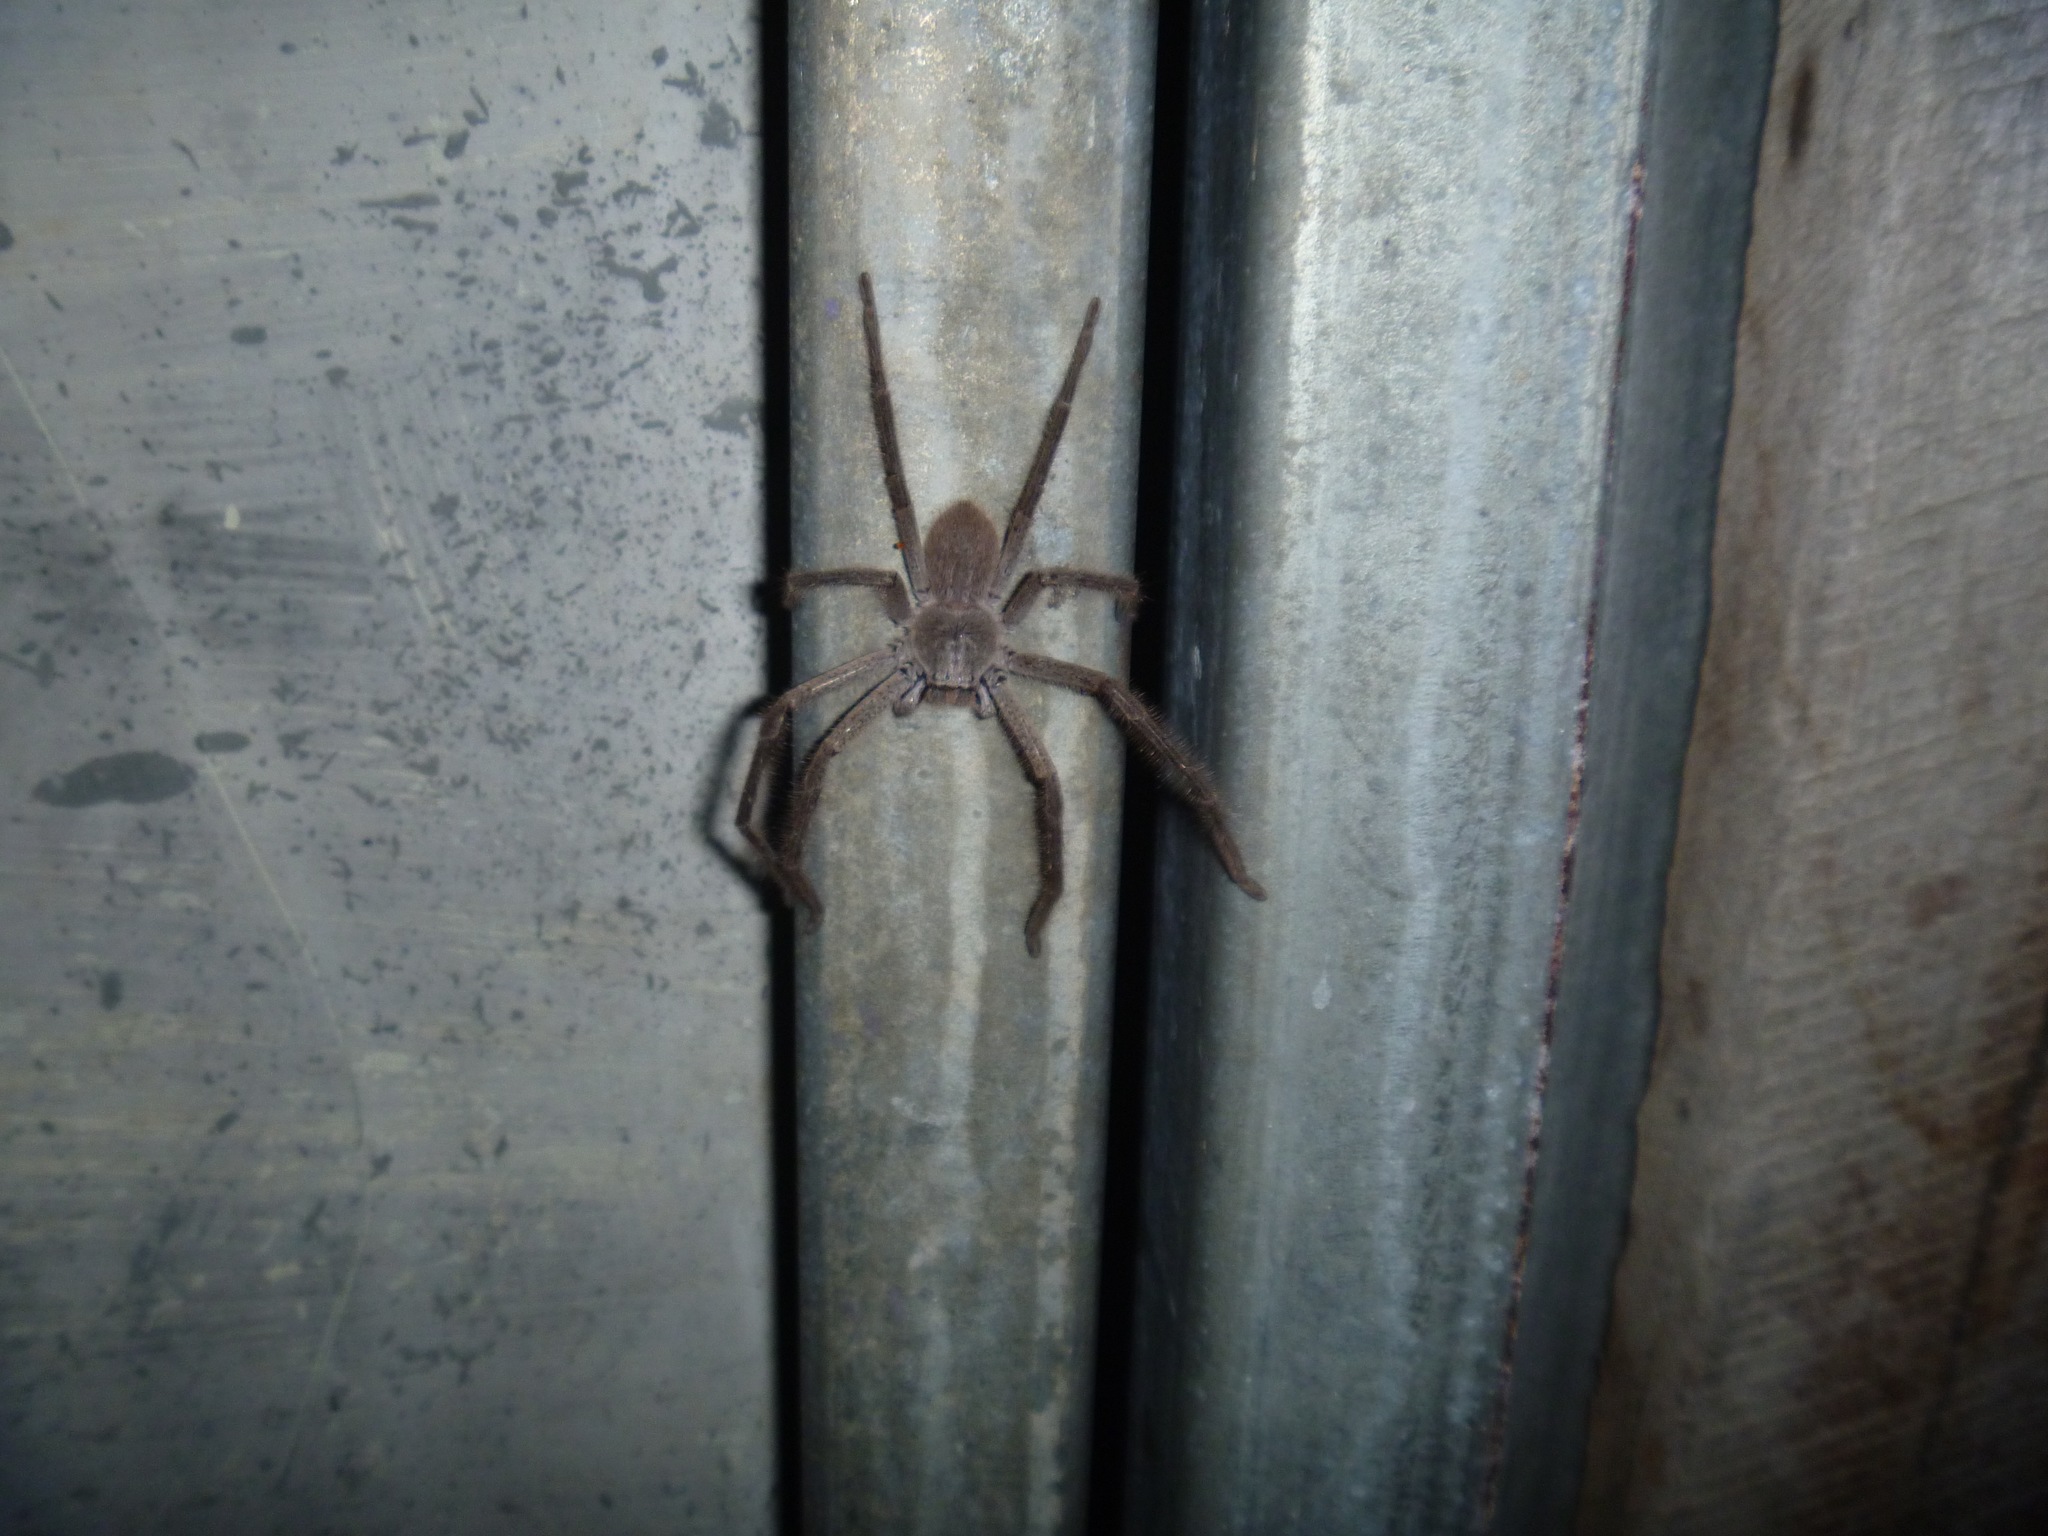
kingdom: Animalia
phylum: Arthropoda
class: Arachnida
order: Araneae
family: Sparassidae
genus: Isopeda
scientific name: Isopeda leishmanni
